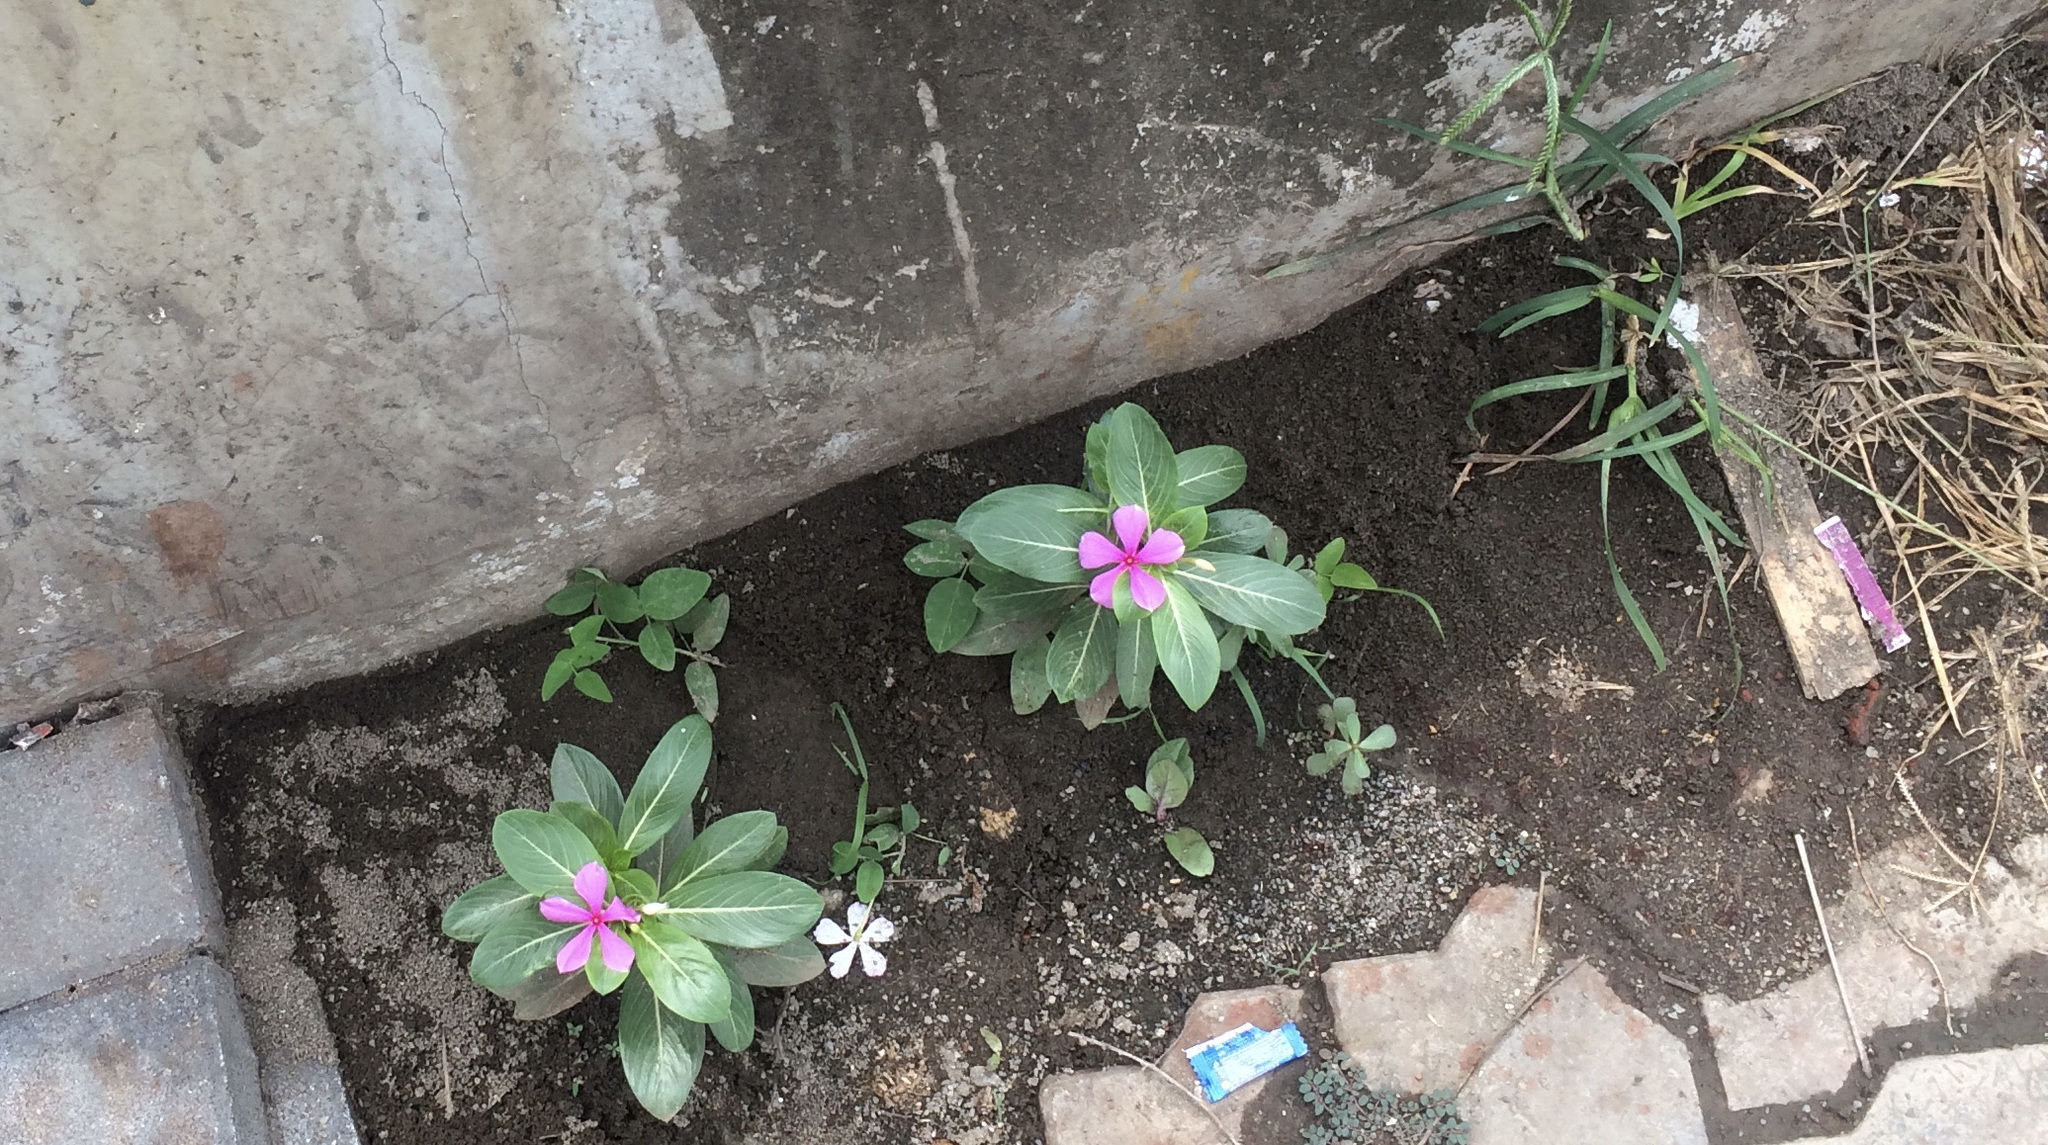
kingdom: Plantae
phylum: Tracheophyta
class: Magnoliopsida
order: Gentianales
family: Apocynaceae
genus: Catharanthus
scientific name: Catharanthus roseus
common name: Madagascar periwinkle
